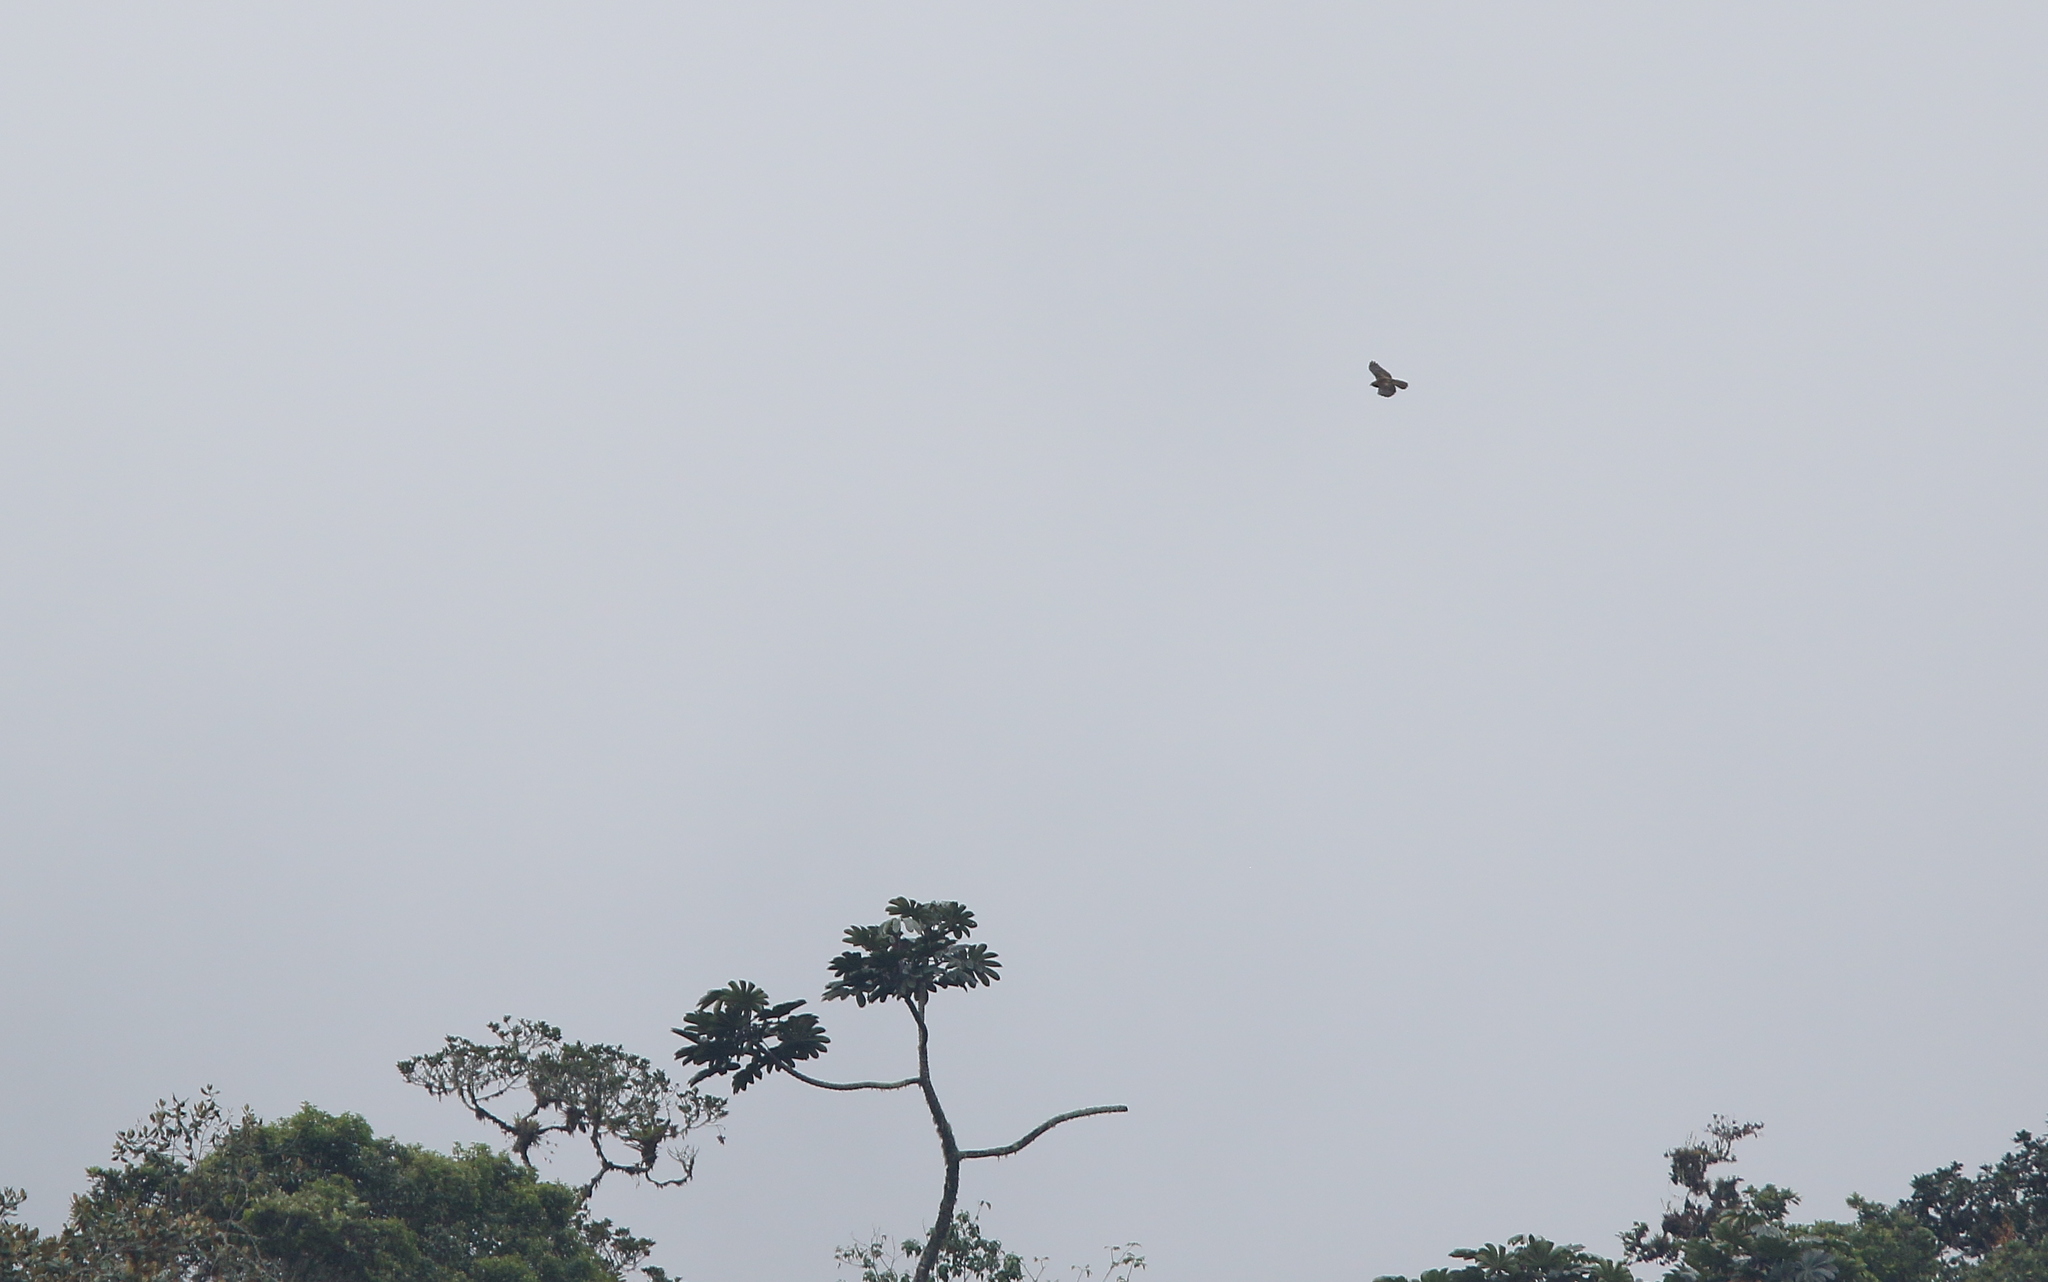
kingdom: Animalia
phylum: Chordata
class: Aves
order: Accipitriformes
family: Accipitridae
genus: Buteo
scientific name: Buteo albigula
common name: White-throated hawk
